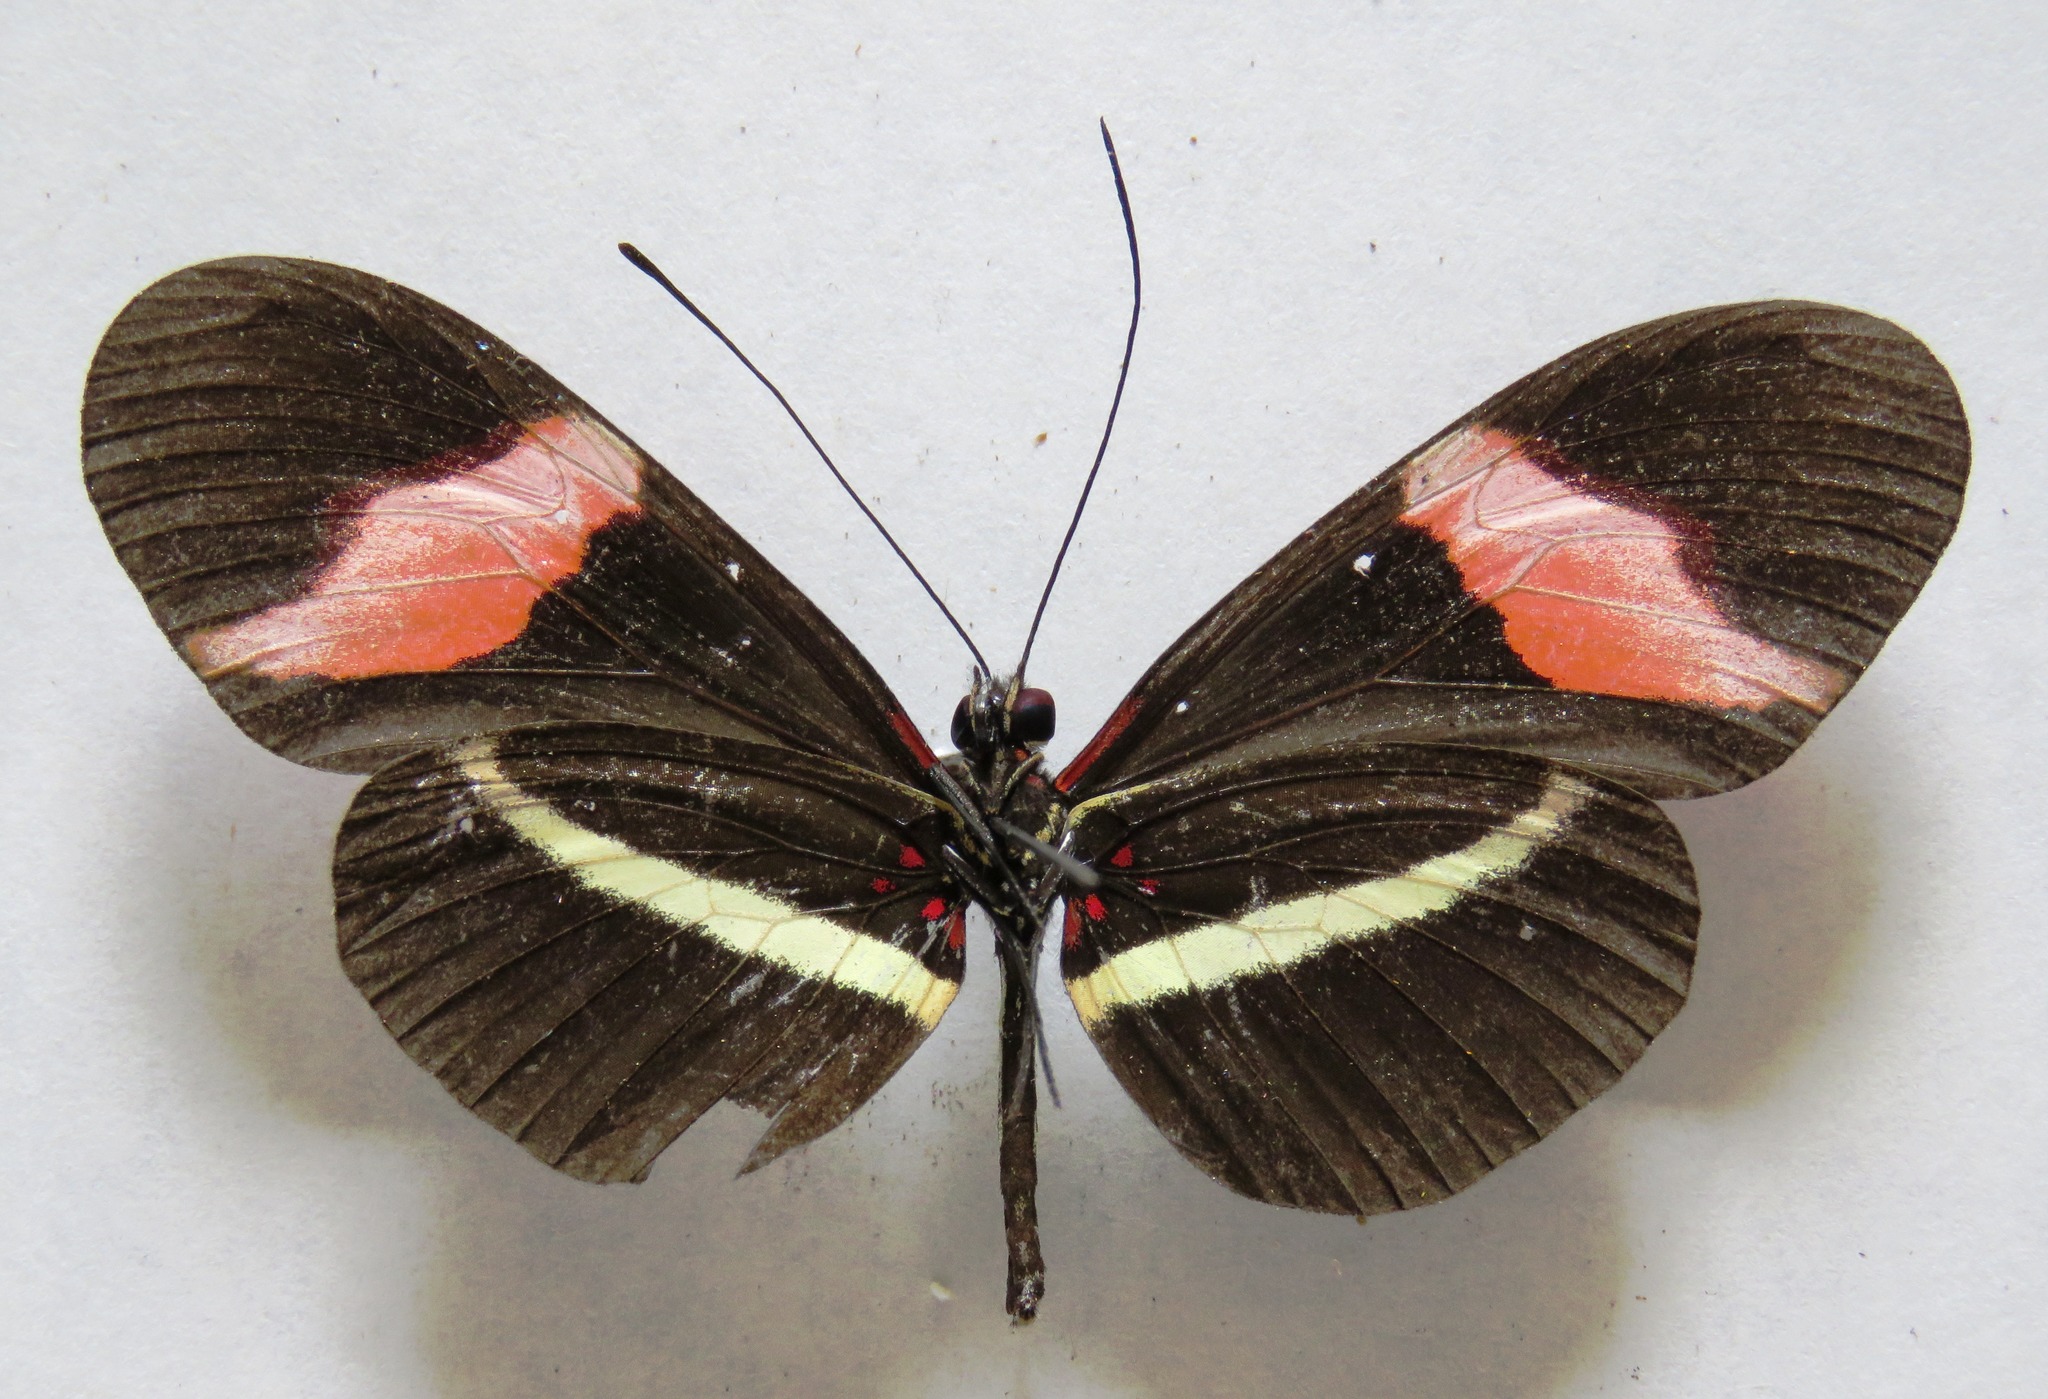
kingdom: Animalia
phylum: Arthropoda
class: Insecta
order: Lepidoptera
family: Nymphalidae
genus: Tirumala
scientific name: Tirumala petiverana
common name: Blue monarch
